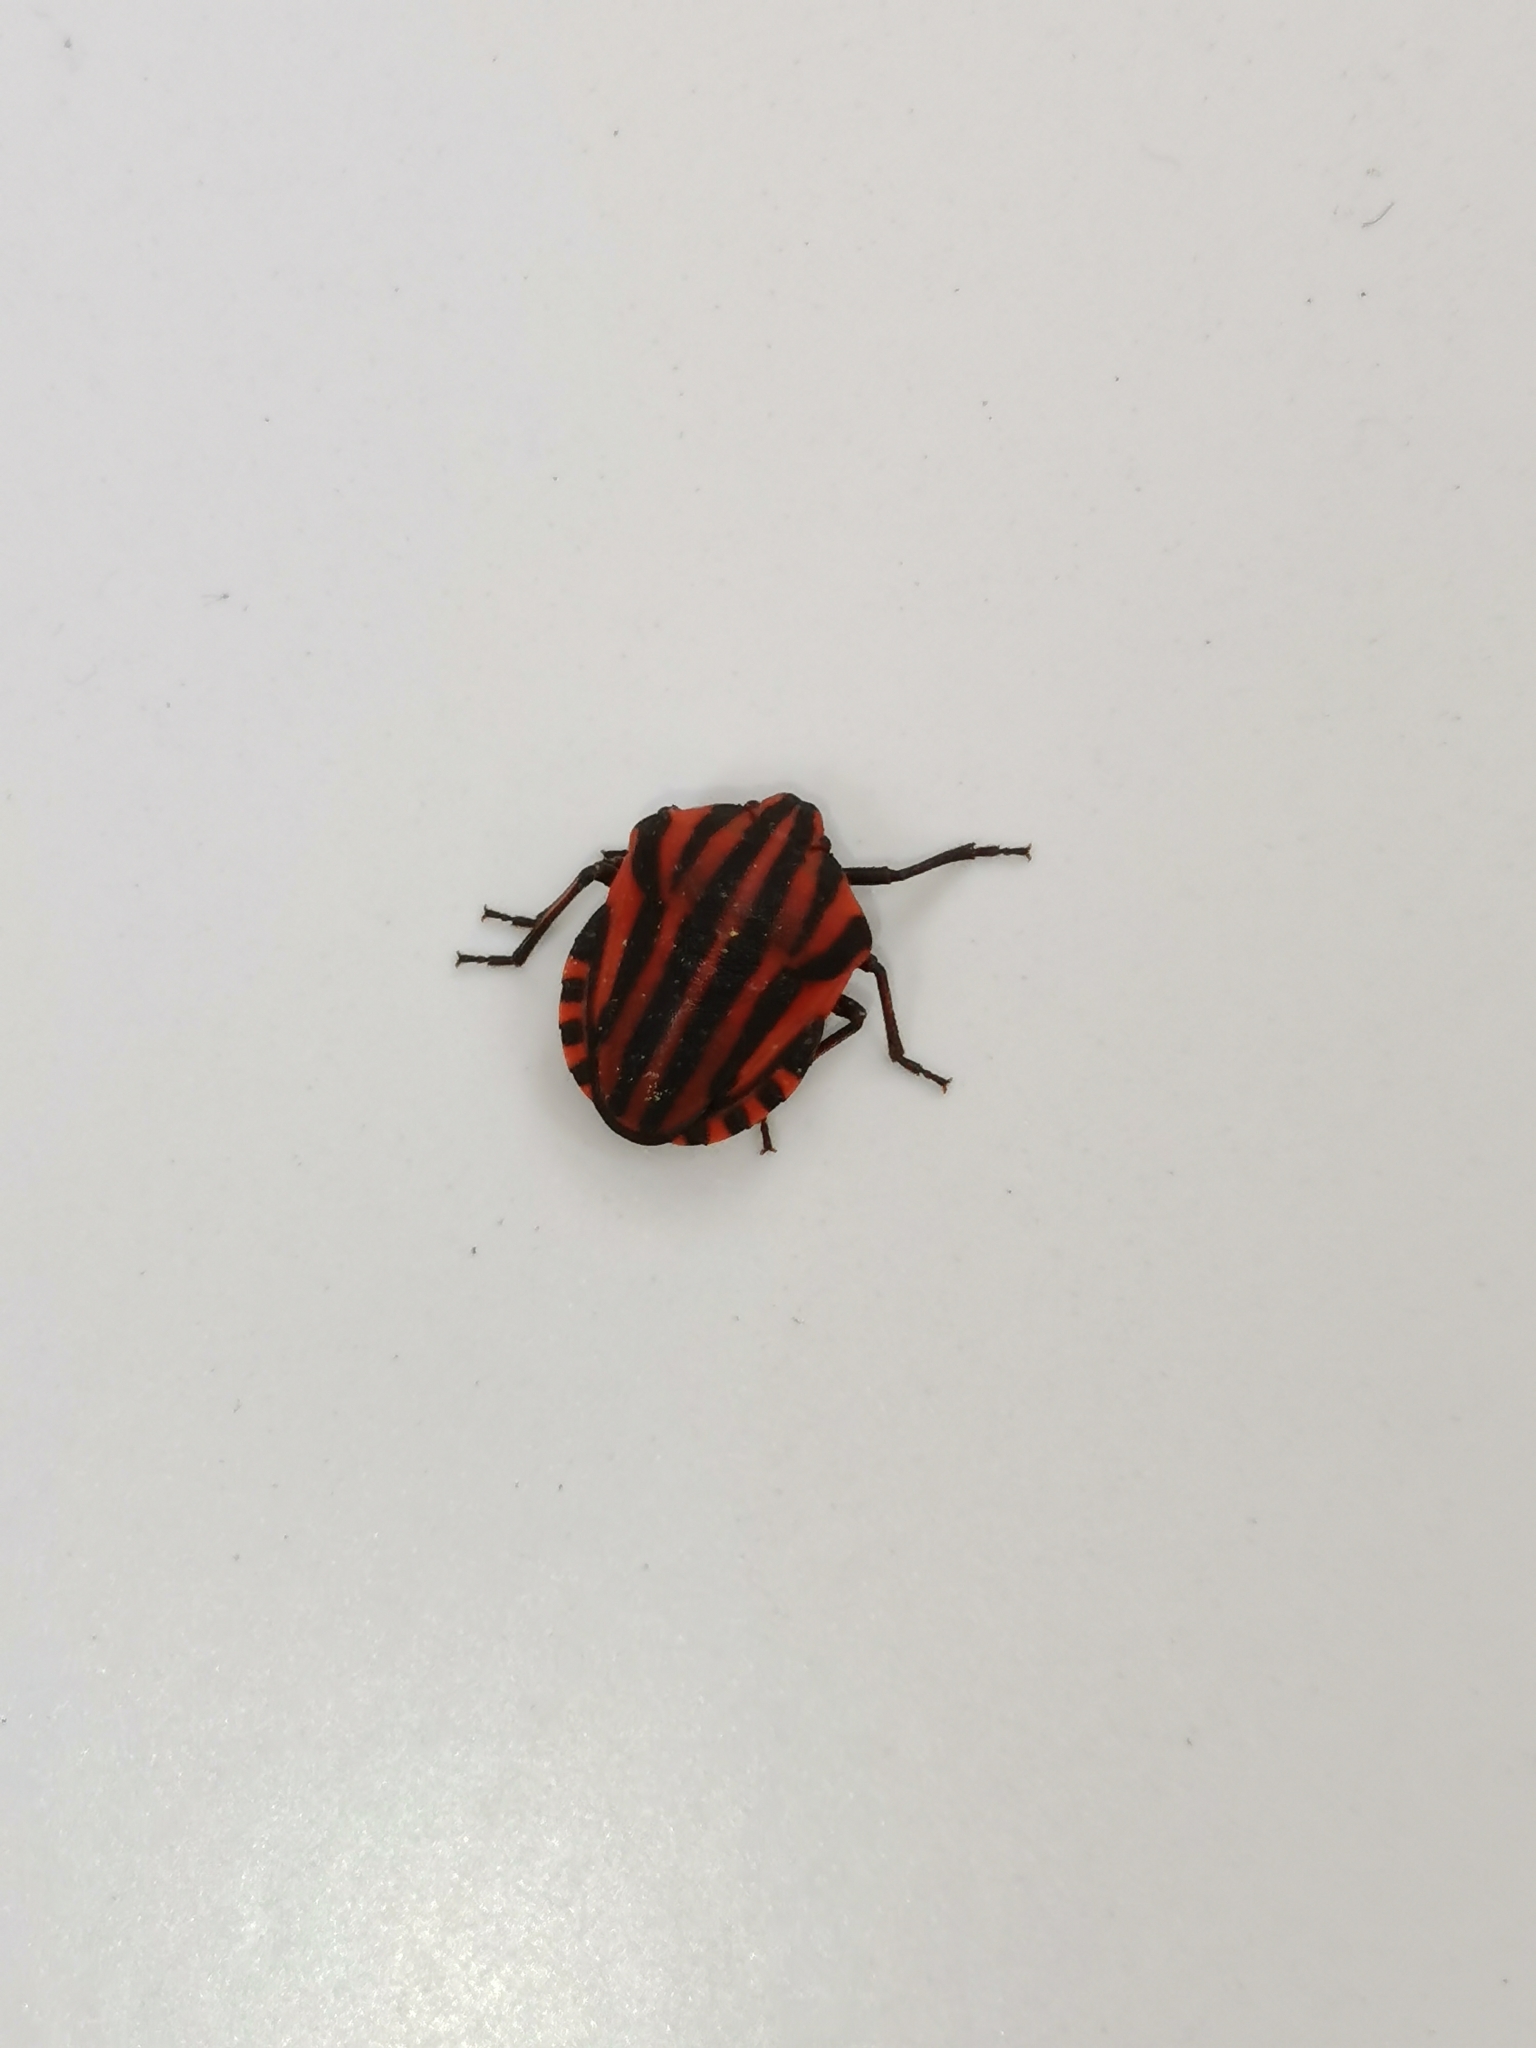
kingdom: Animalia
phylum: Arthropoda
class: Insecta
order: Hemiptera
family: Pentatomidae
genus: Graphosoma
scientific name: Graphosoma italicum
